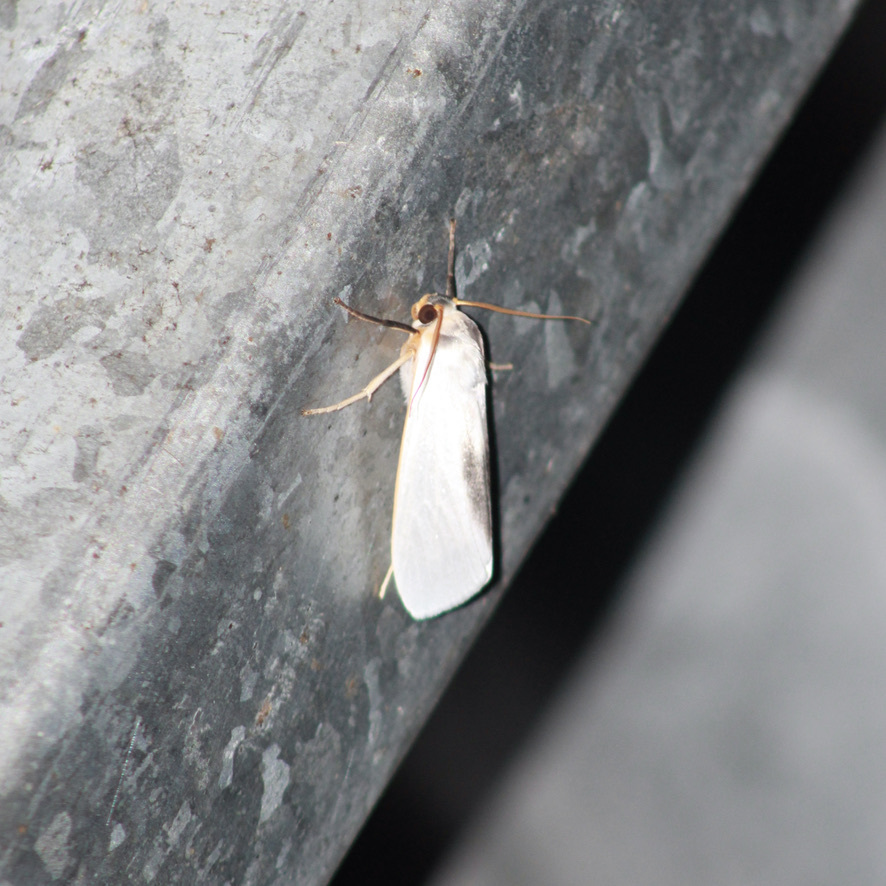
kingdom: Animalia
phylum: Arthropoda
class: Insecta
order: Lepidoptera
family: Erebidae
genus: Agylla
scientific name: Agylla argentifera
